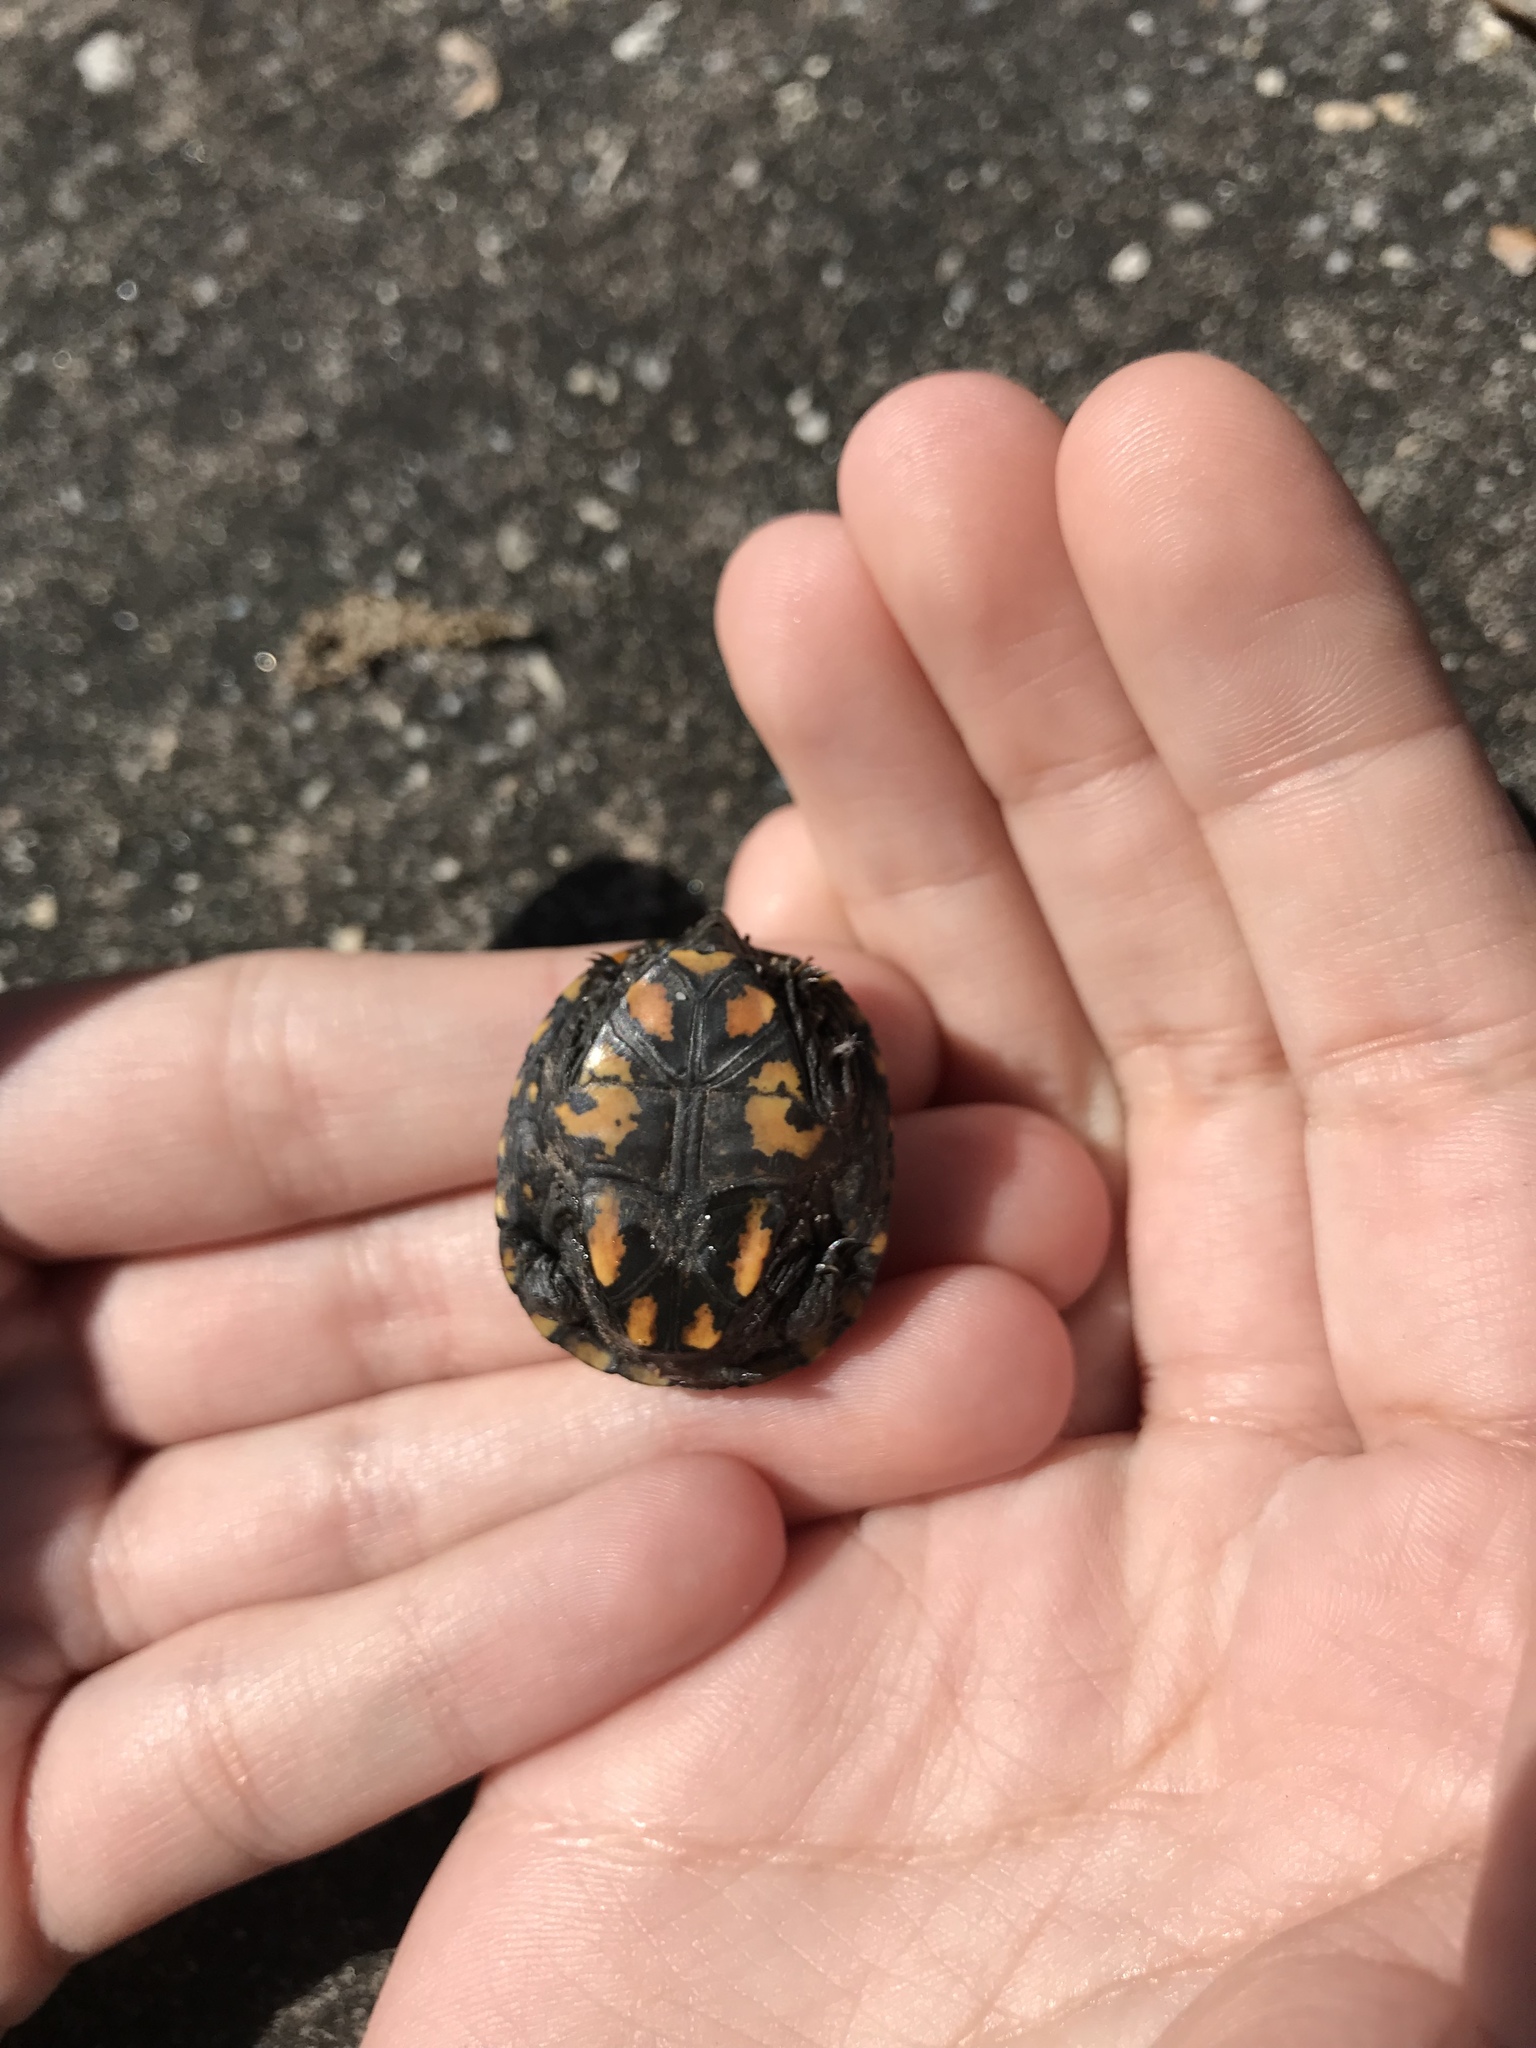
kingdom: Animalia
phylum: Chordata
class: Testudines
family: Kinosternidae
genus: Kinosternon
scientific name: Kinosternon subrubrum
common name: Eastern mud turtle
